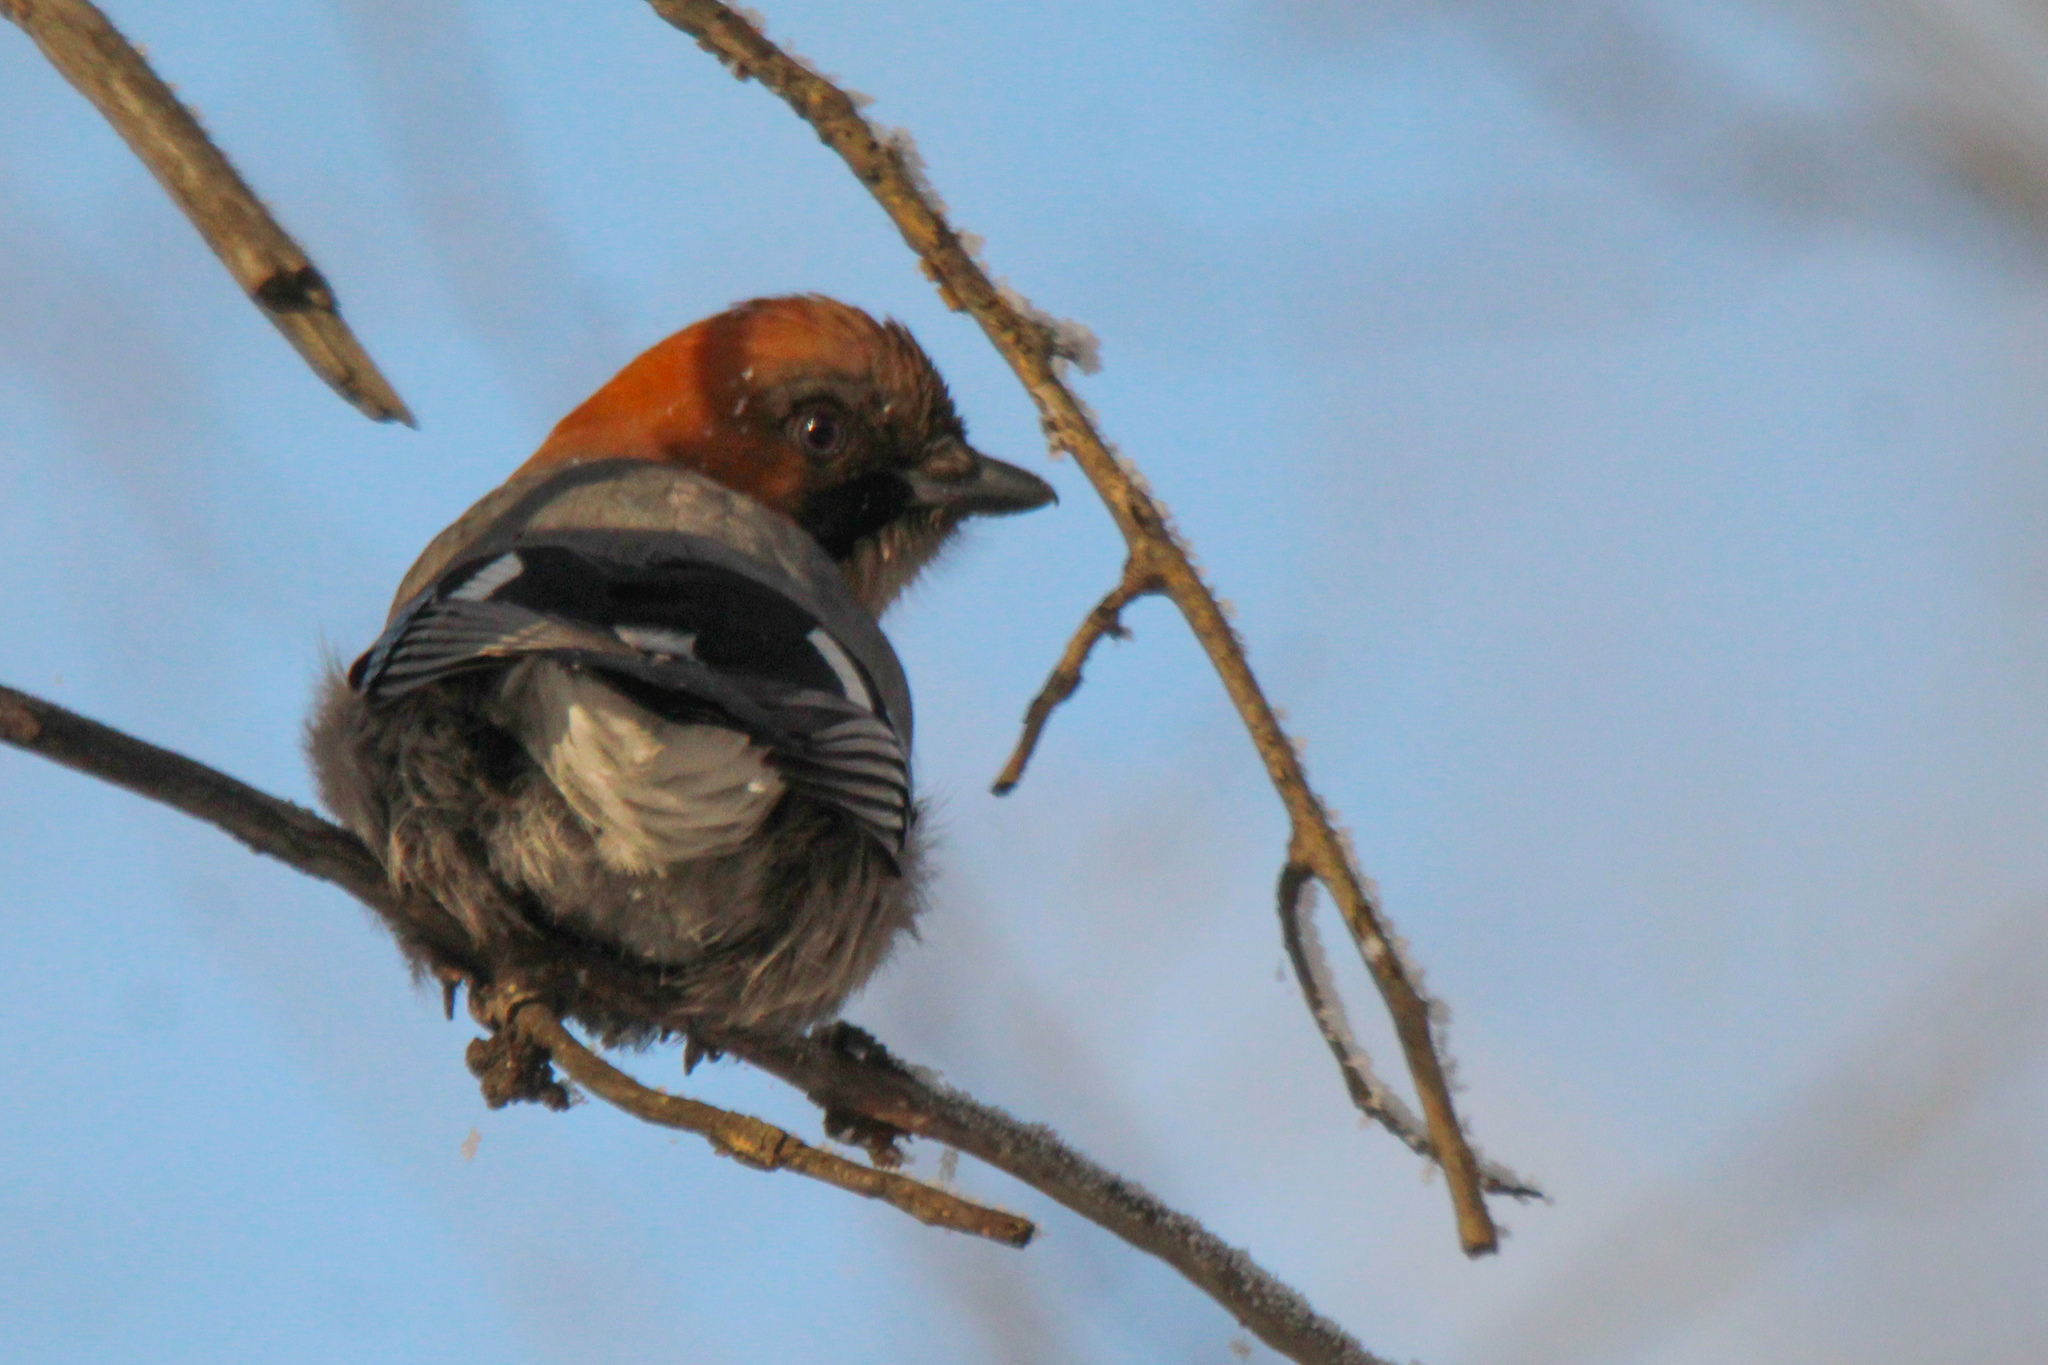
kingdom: Animalia
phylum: Chordata
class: Aves
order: Passeriformes
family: Corvidae
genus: Garrulus
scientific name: Garrulus glandarius
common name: Eurasian jay
